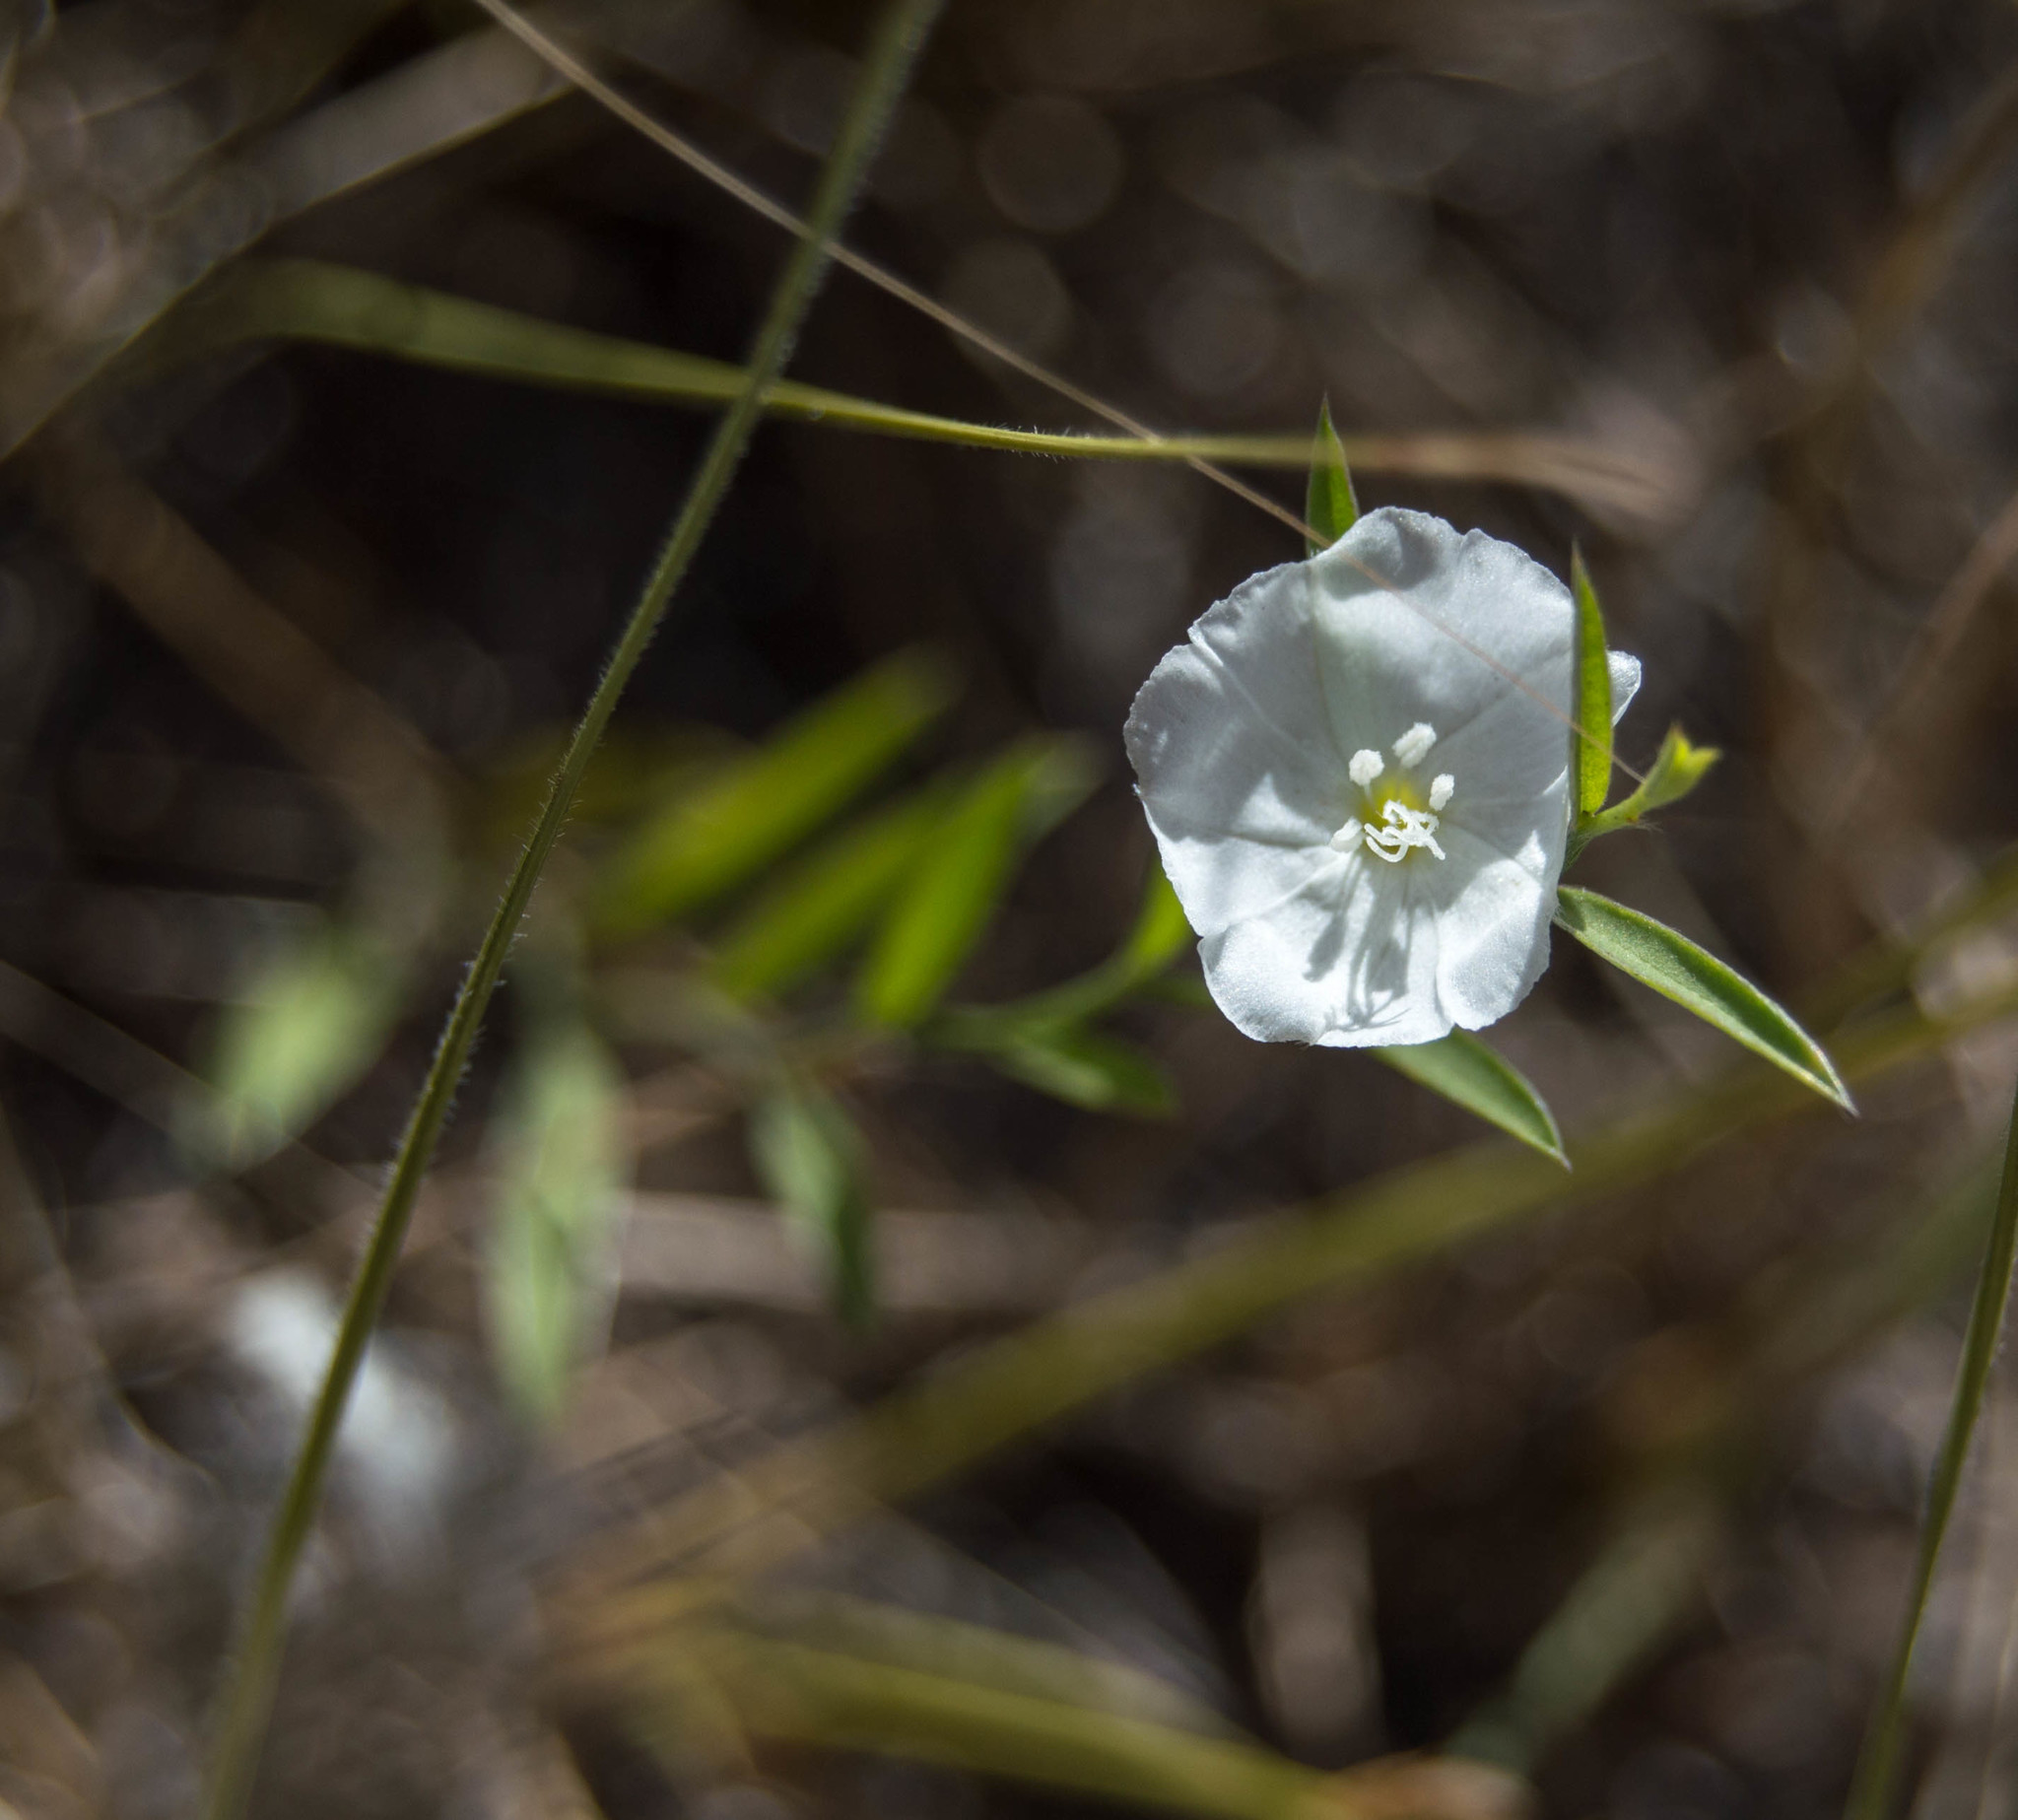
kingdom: Plantae
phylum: Tracheophyta
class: Magnoliopsida
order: Solanales
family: Convolvulaceae
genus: Evolvulus
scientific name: Evolvulus sericeus
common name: Blue dots
